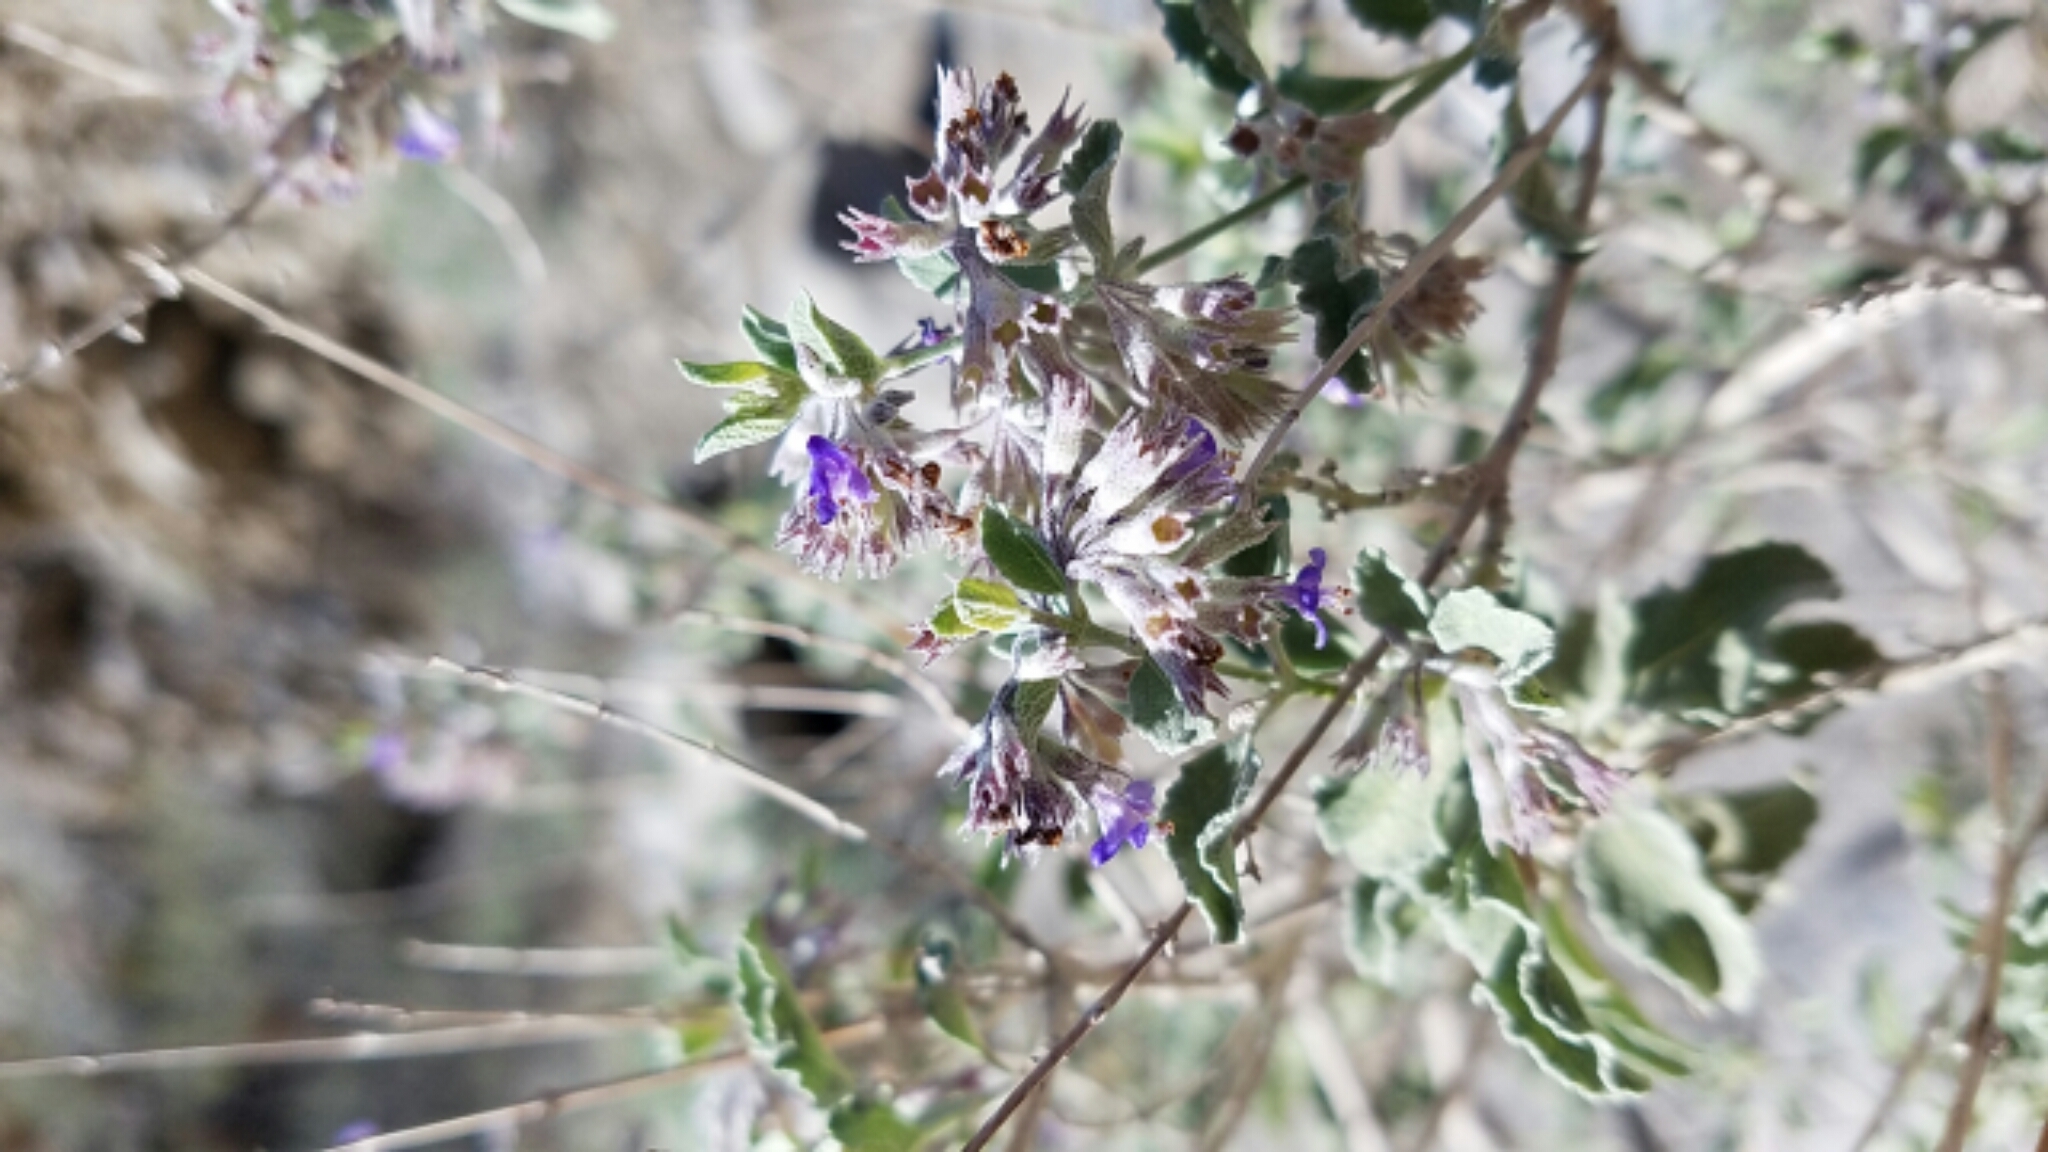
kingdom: Plantae
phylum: Tracheophyta
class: Magnoliopsida
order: Lamiales
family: Lamiaceae
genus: Condea
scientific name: Condea emoryi
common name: Chia
